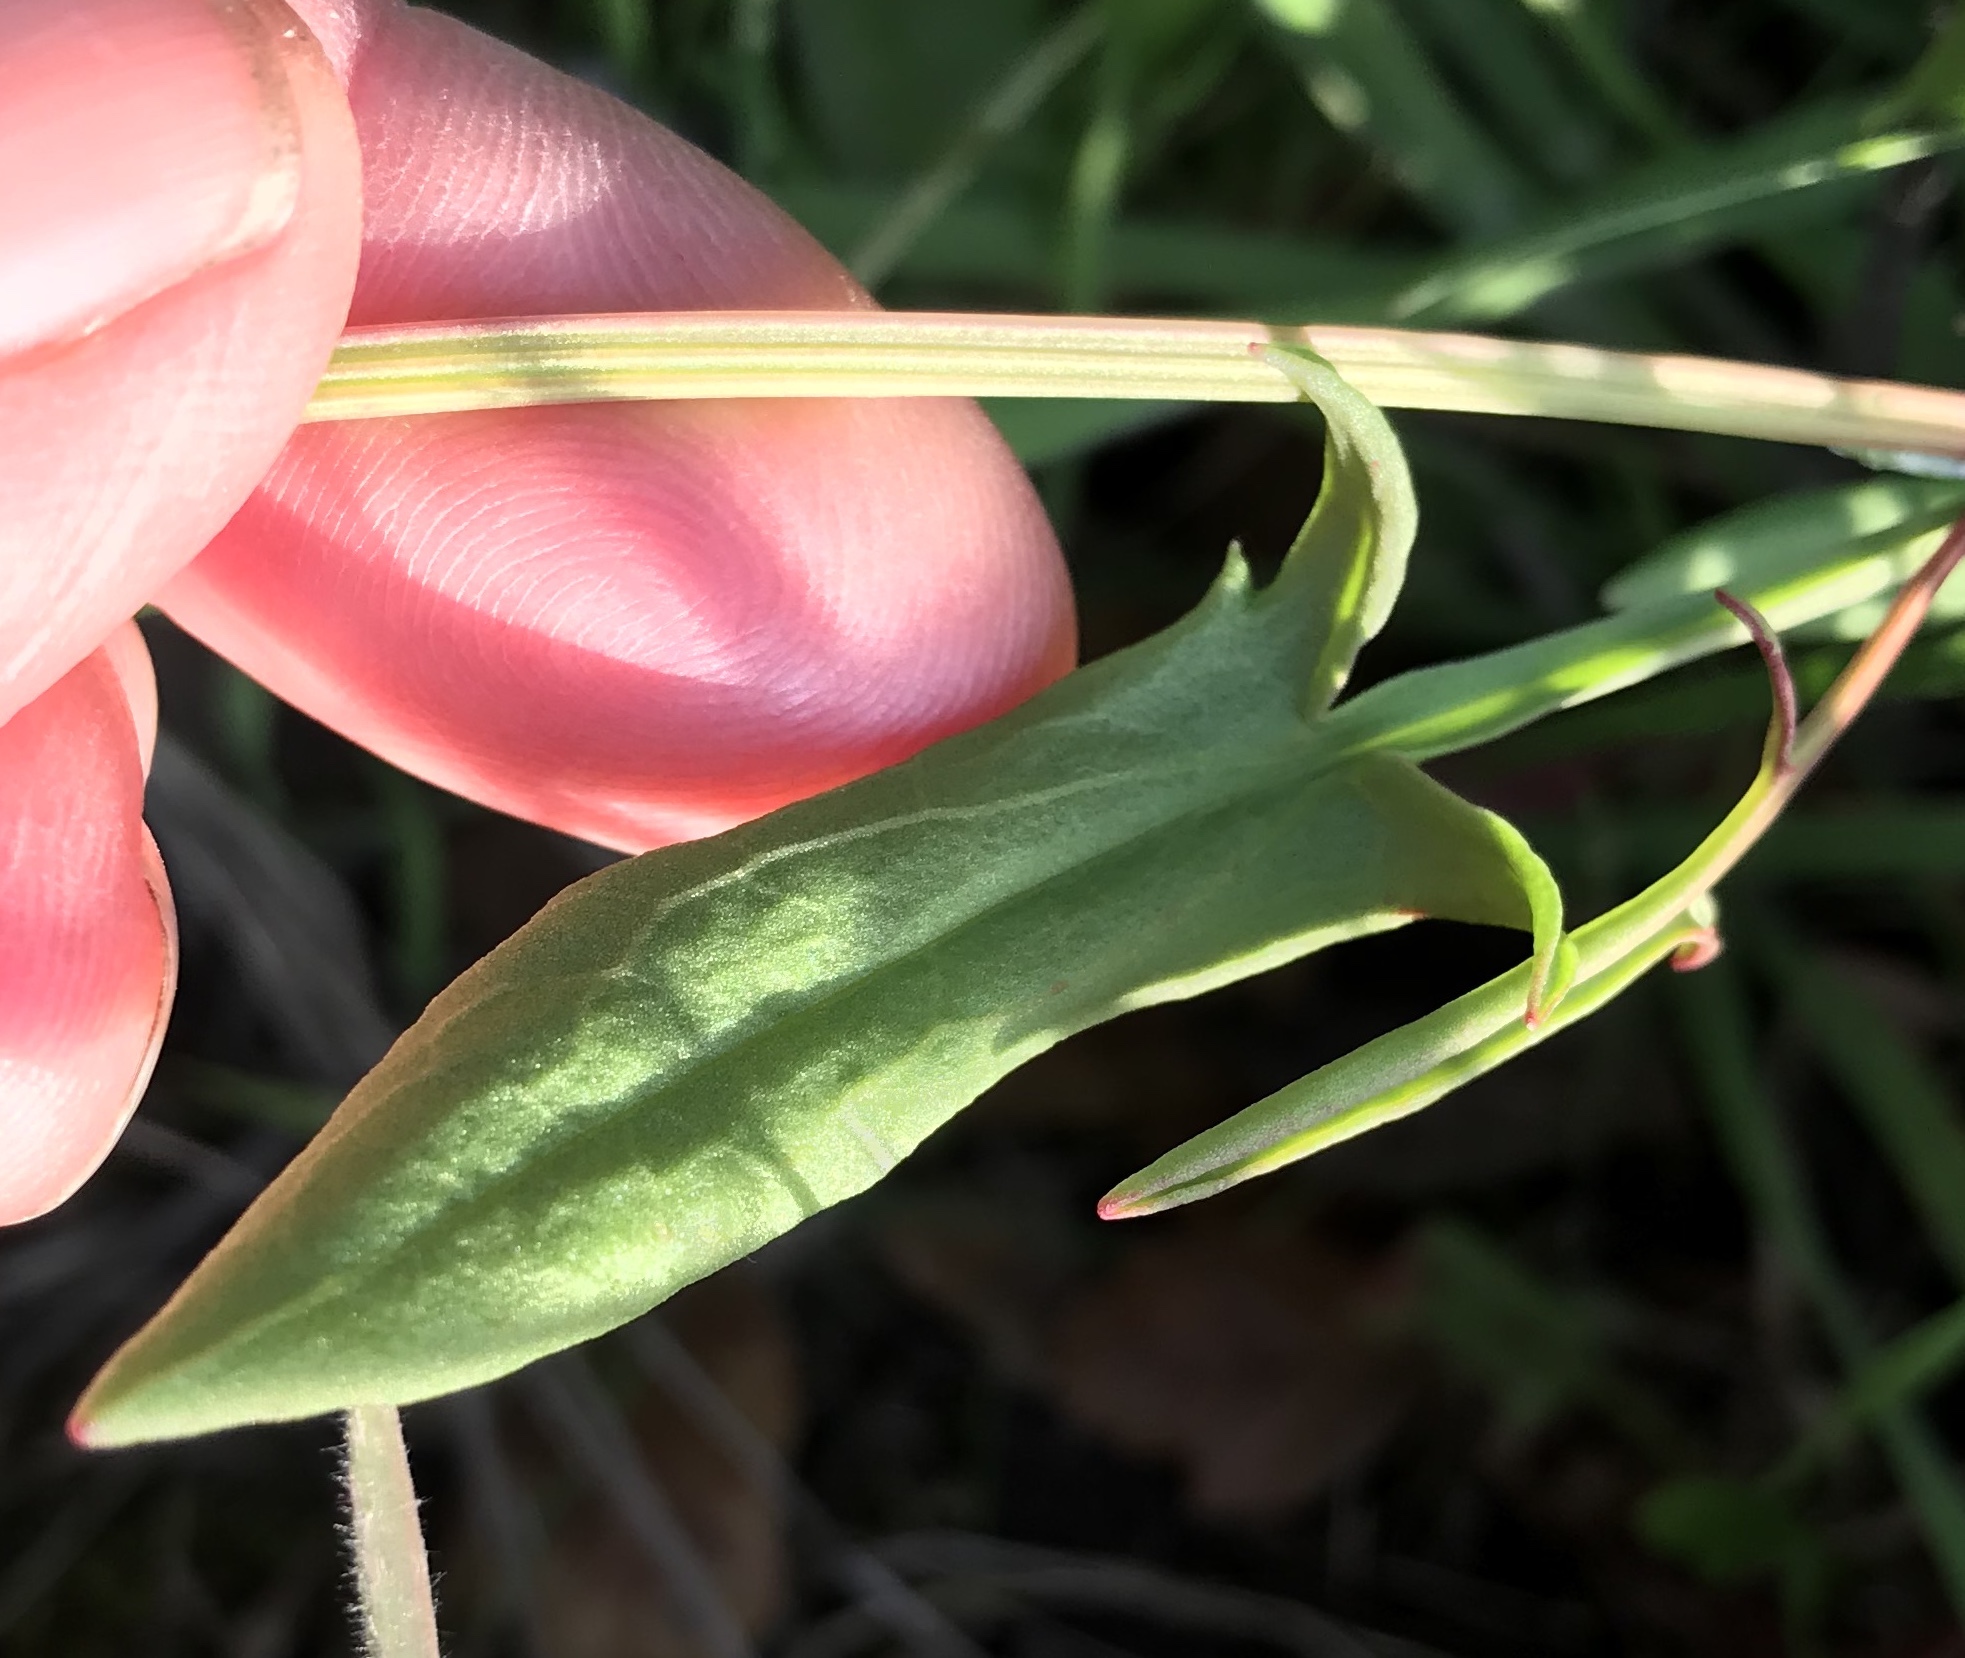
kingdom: Plantae
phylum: Tracheophyta
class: Magnoliopsida
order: Caryophyllales
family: Polygonaceae
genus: Rumex
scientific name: Rumex acetosella
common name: Common sheep sorrel
